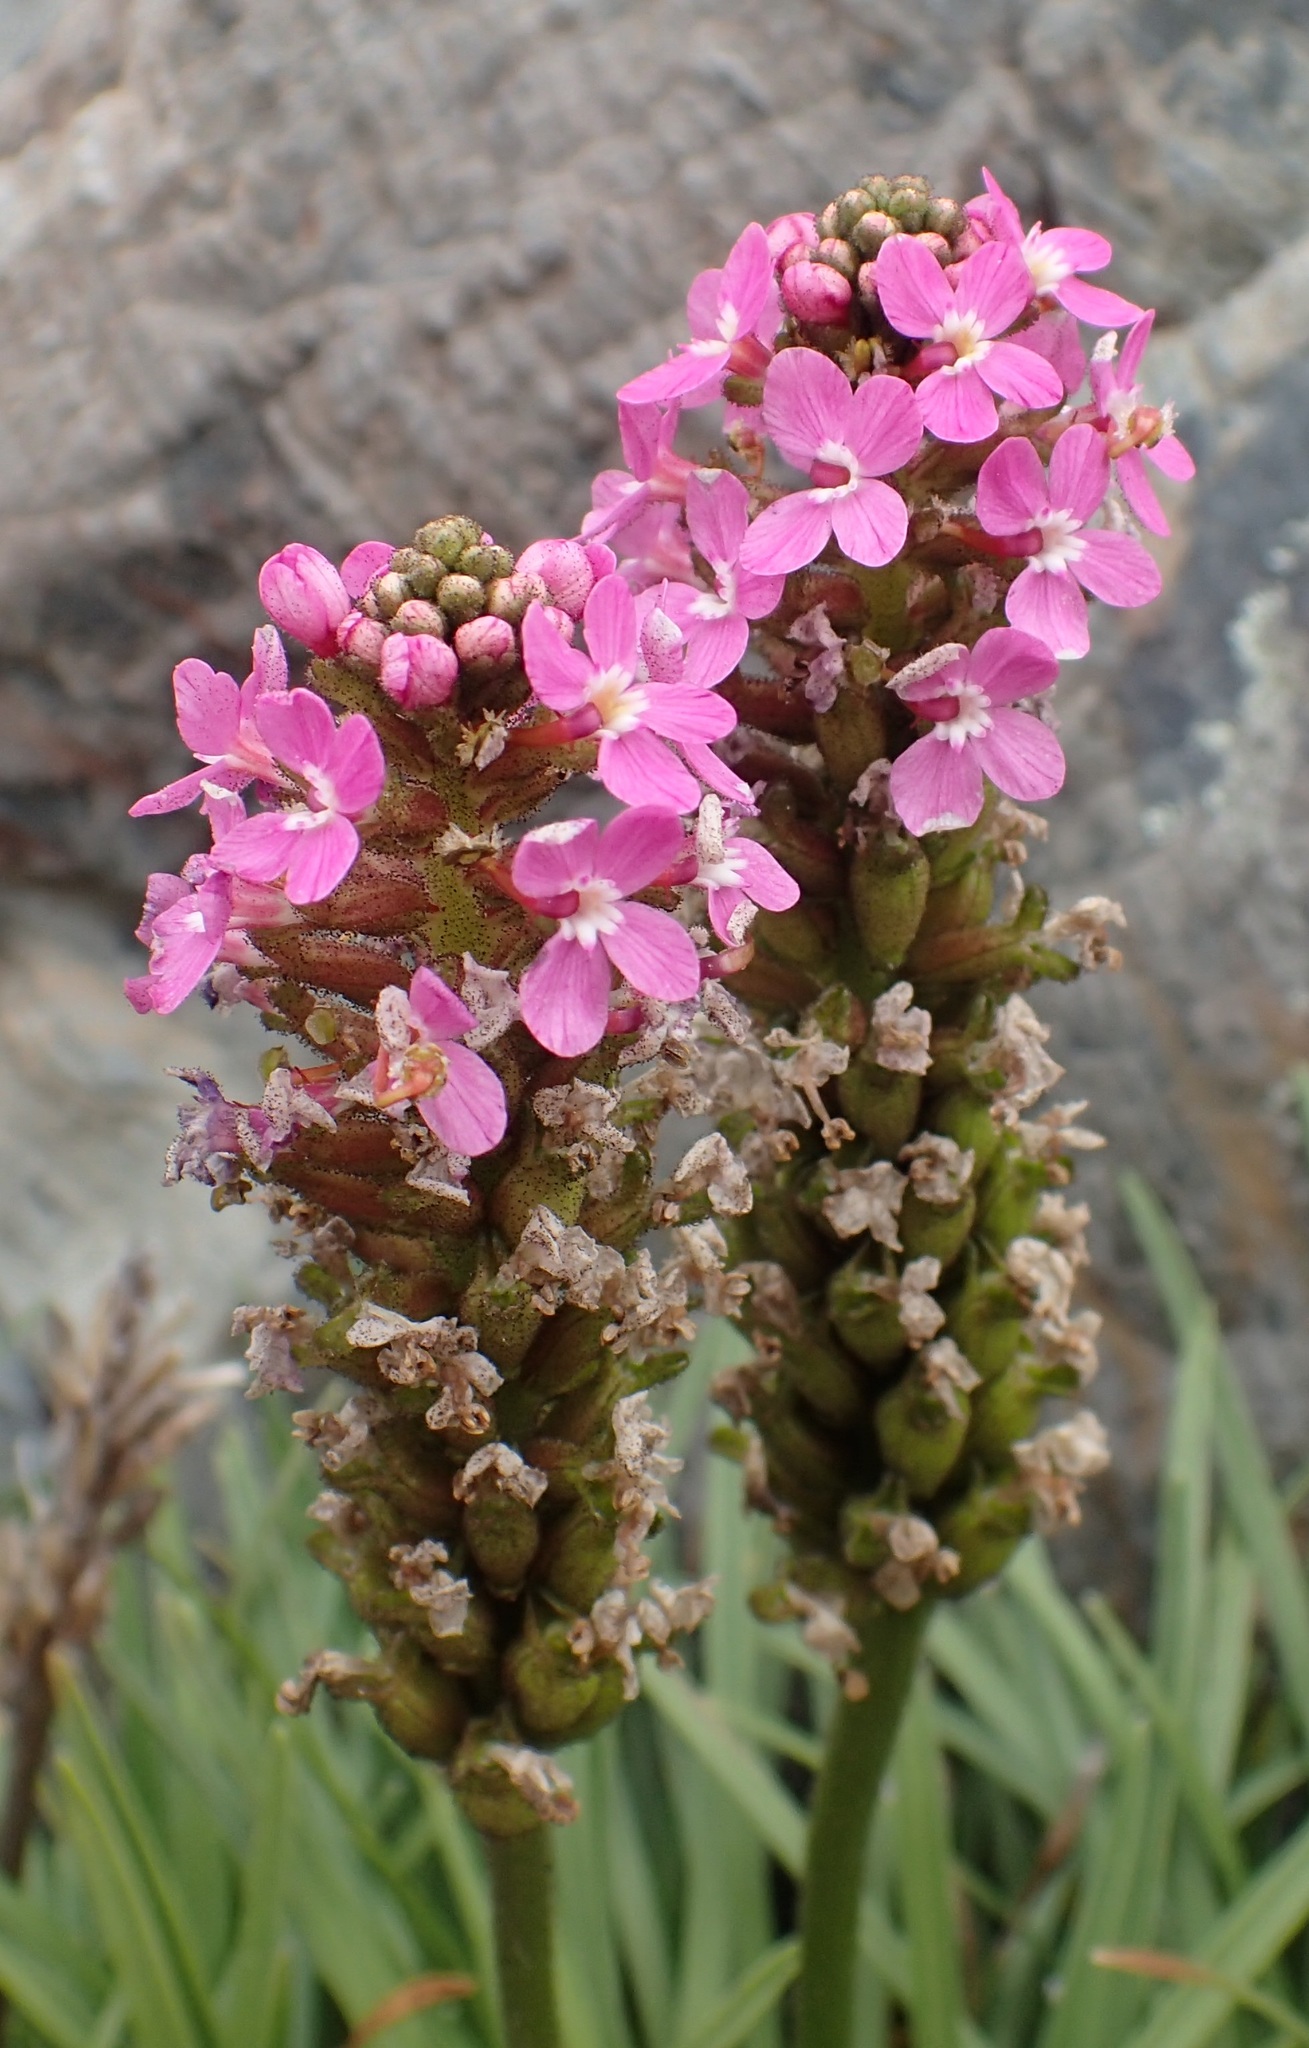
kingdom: Plantae
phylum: Tracheophyta
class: Magnoliopsida
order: Asterales
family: Stylidiaceae
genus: Stylidium
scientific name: Stylidium armeria
